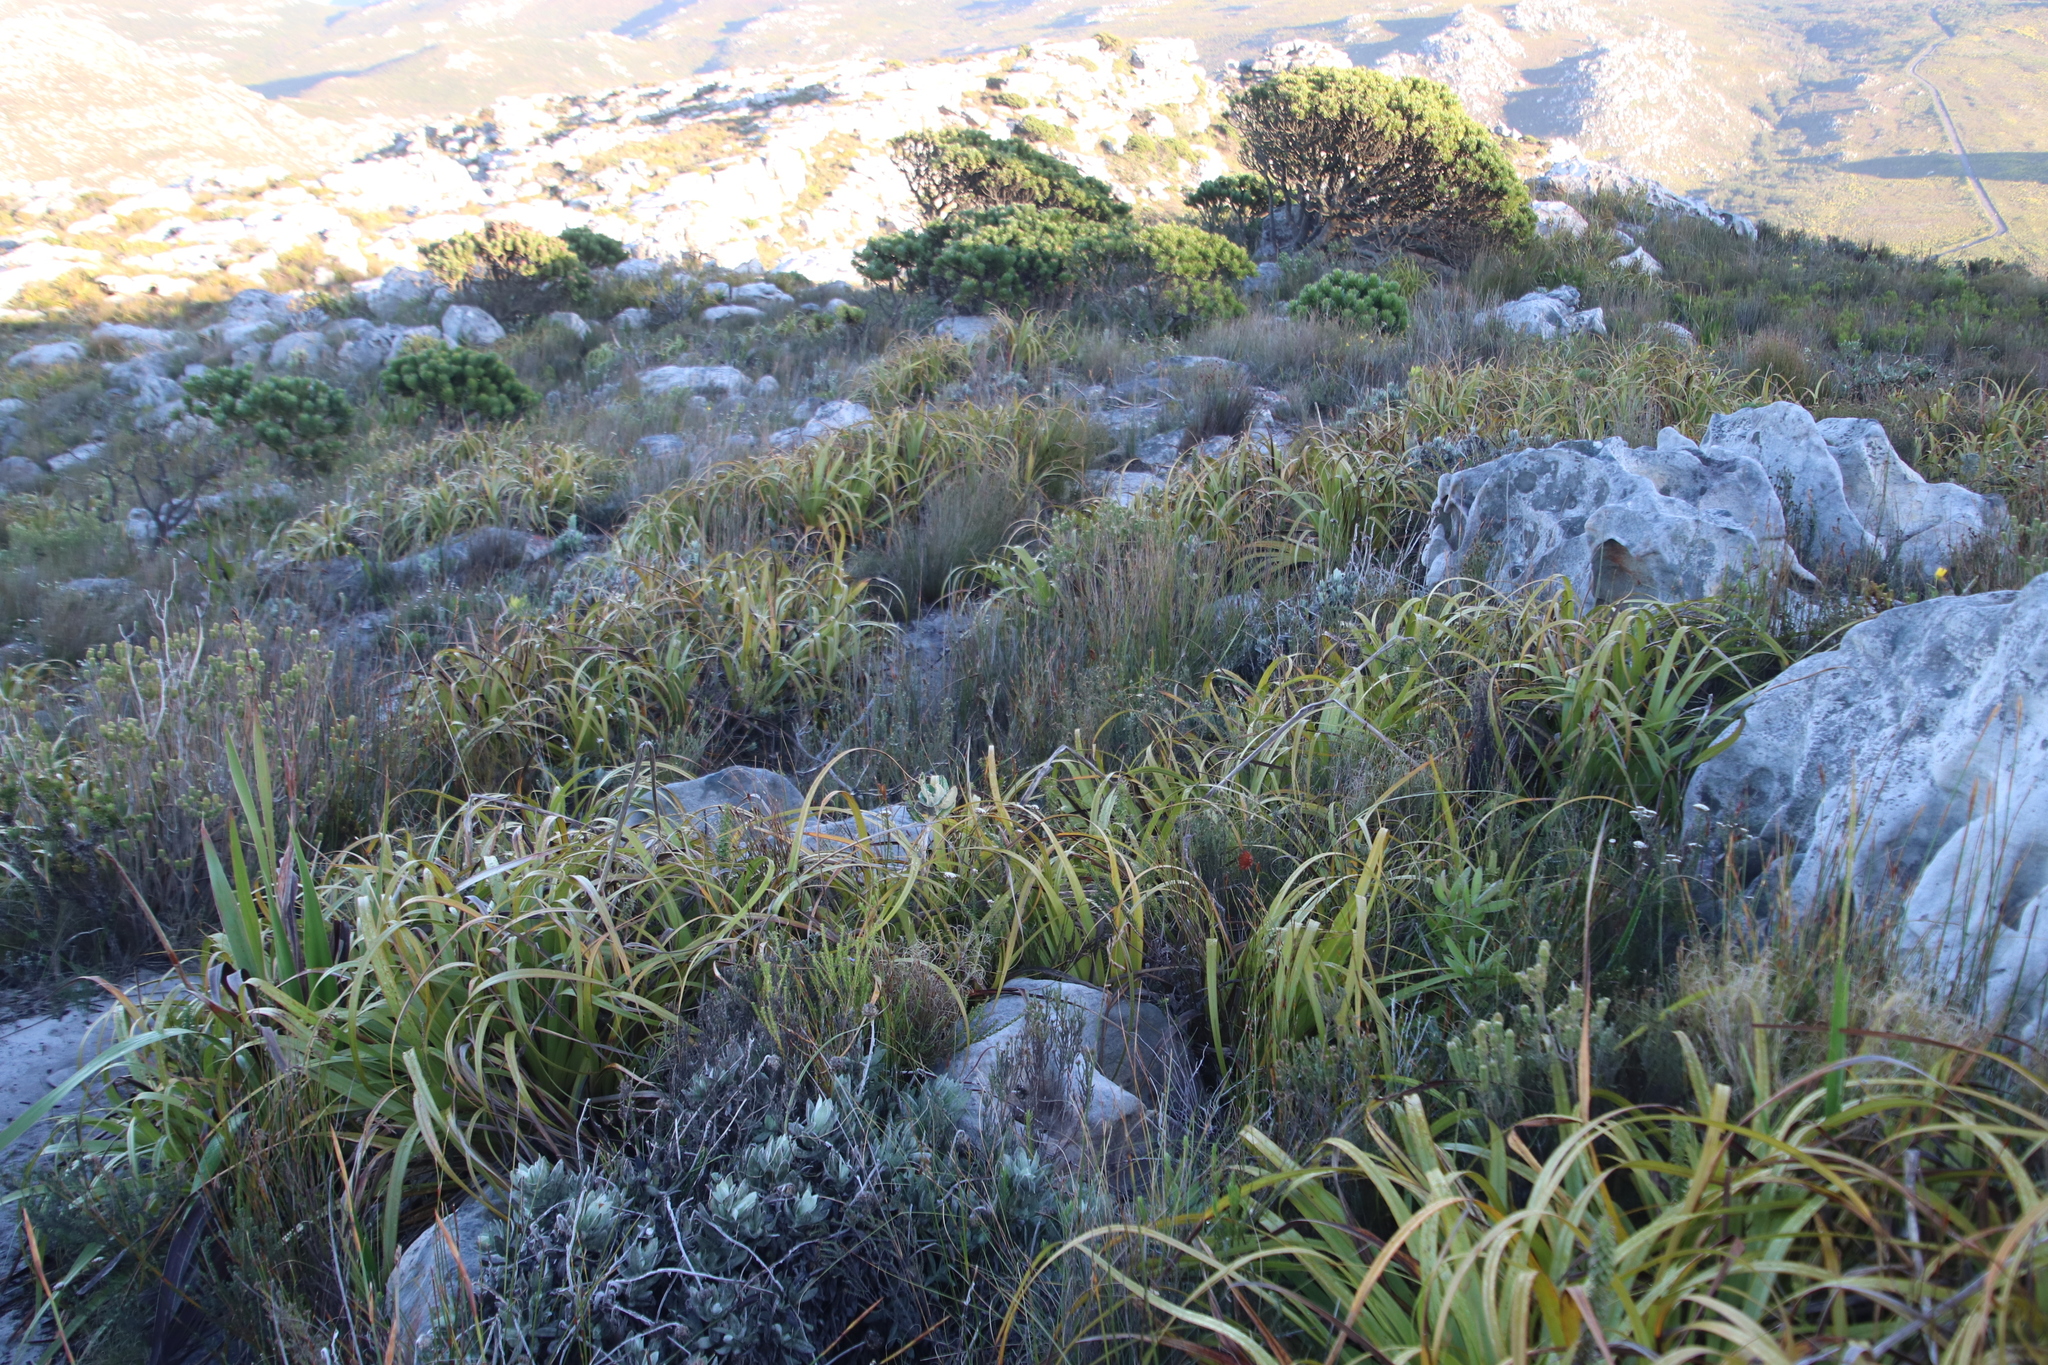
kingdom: Plantae
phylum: Tracheophyta
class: Liliopsida
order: Poales
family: Cyperaceae
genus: Tetraria
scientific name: Tetraria thermalis
